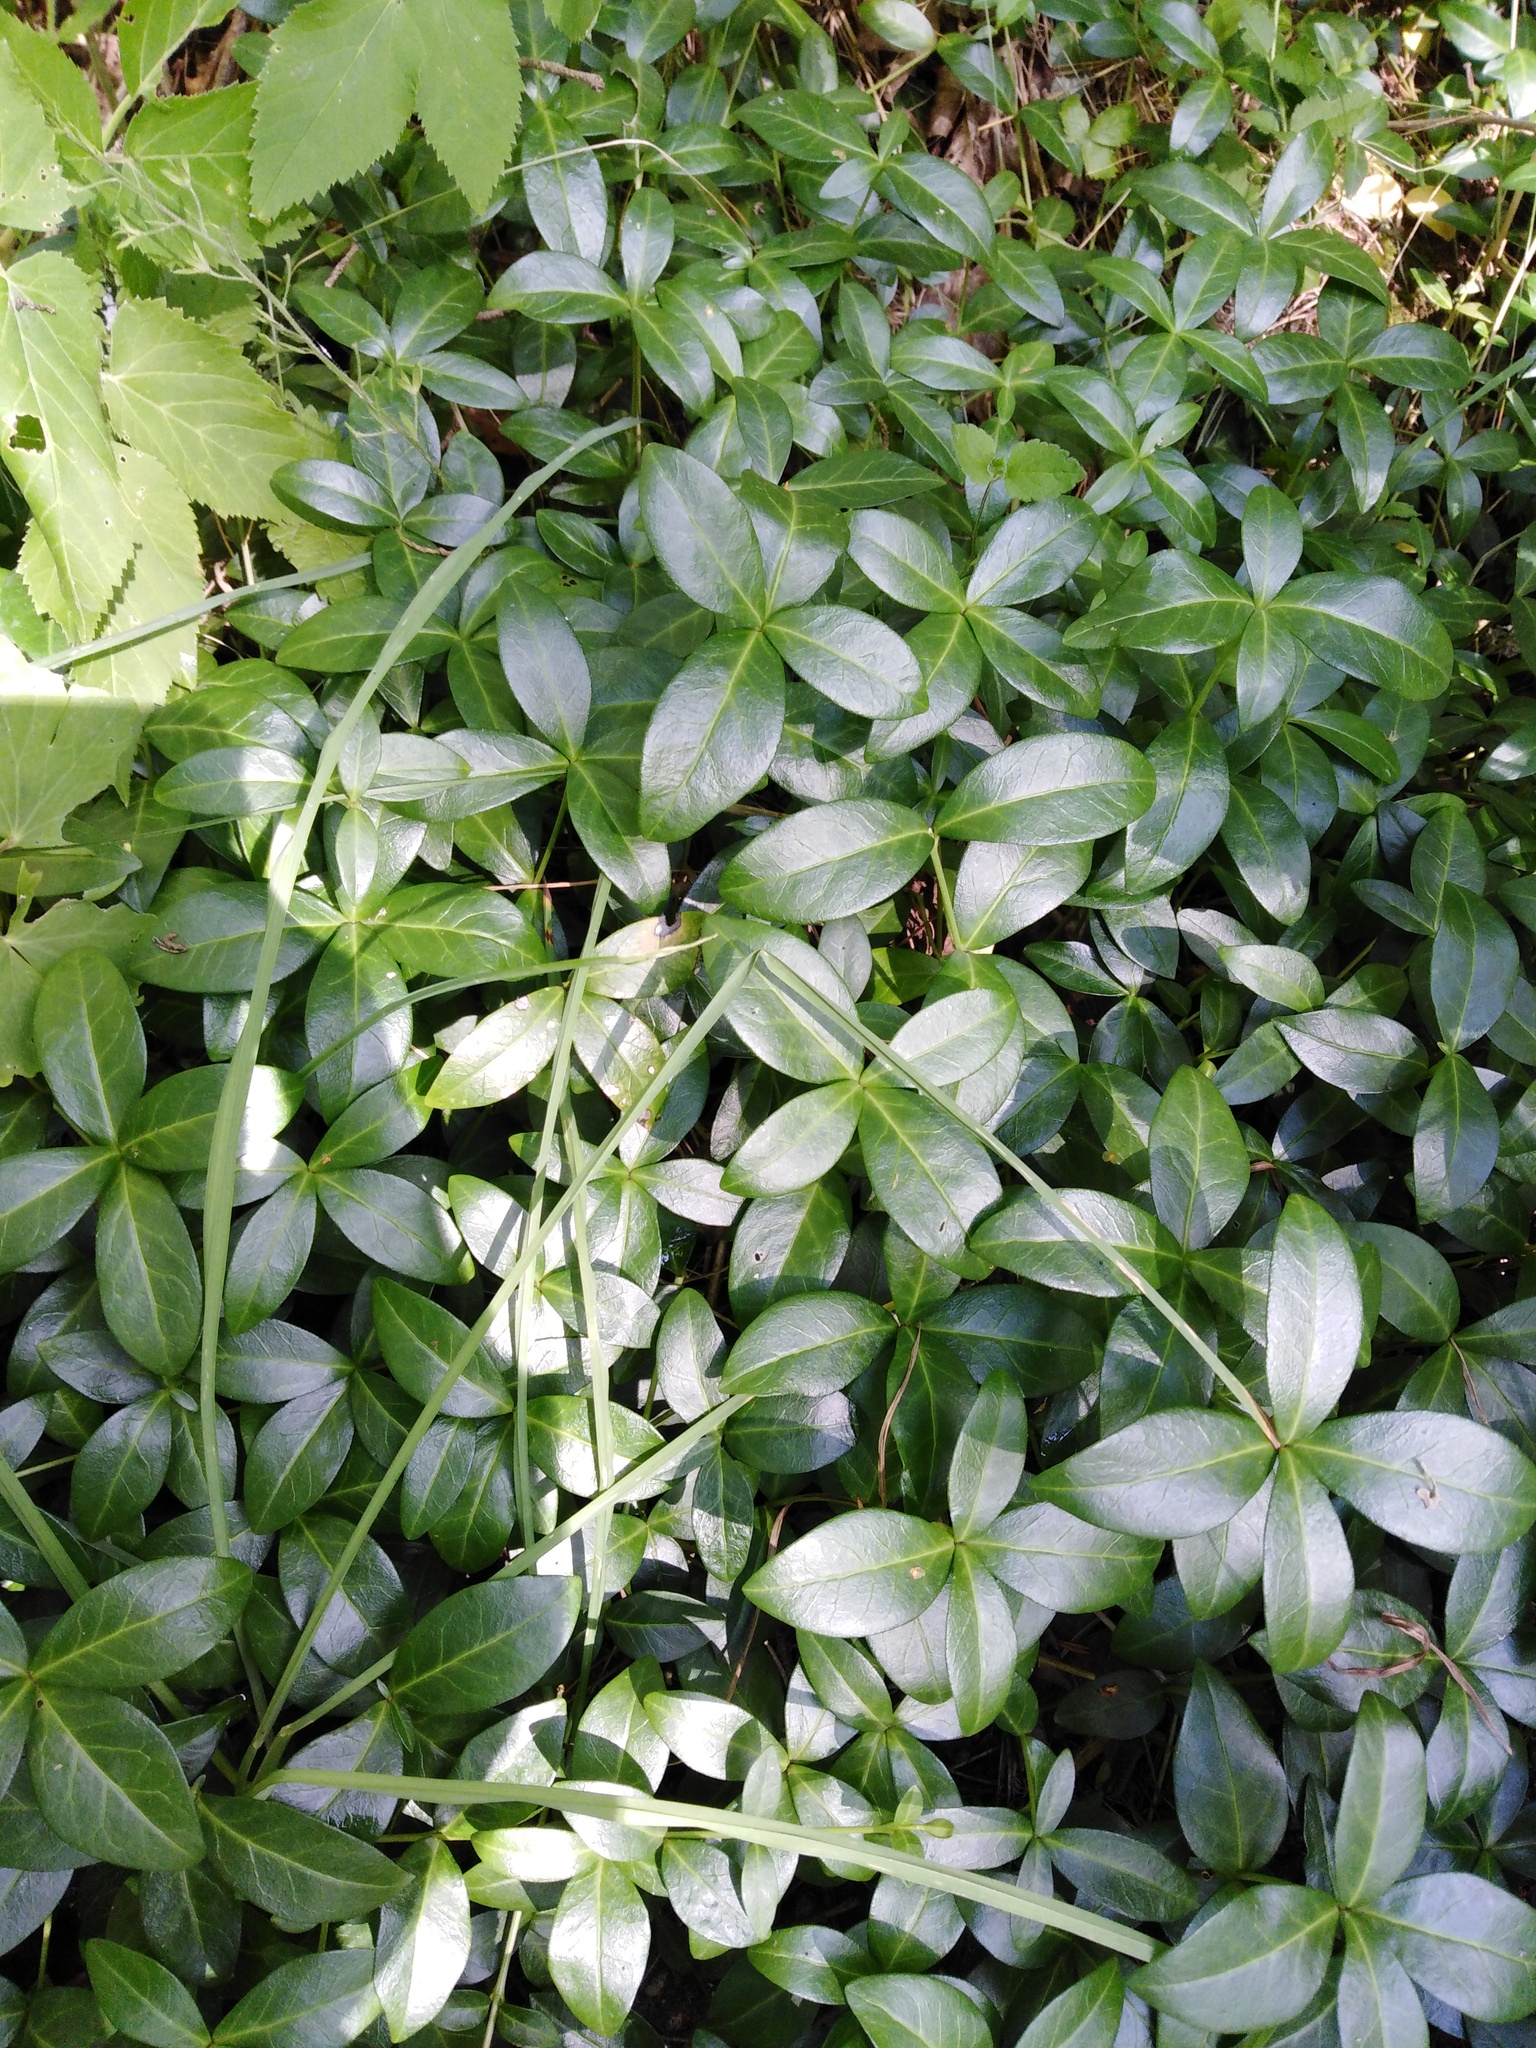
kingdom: Plantae
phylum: Tracheophyta
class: Magnoliopsida
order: Gentianales
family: Apocynaceae
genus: Vinca
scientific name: Vinca minor
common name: Lesser periwinkle
